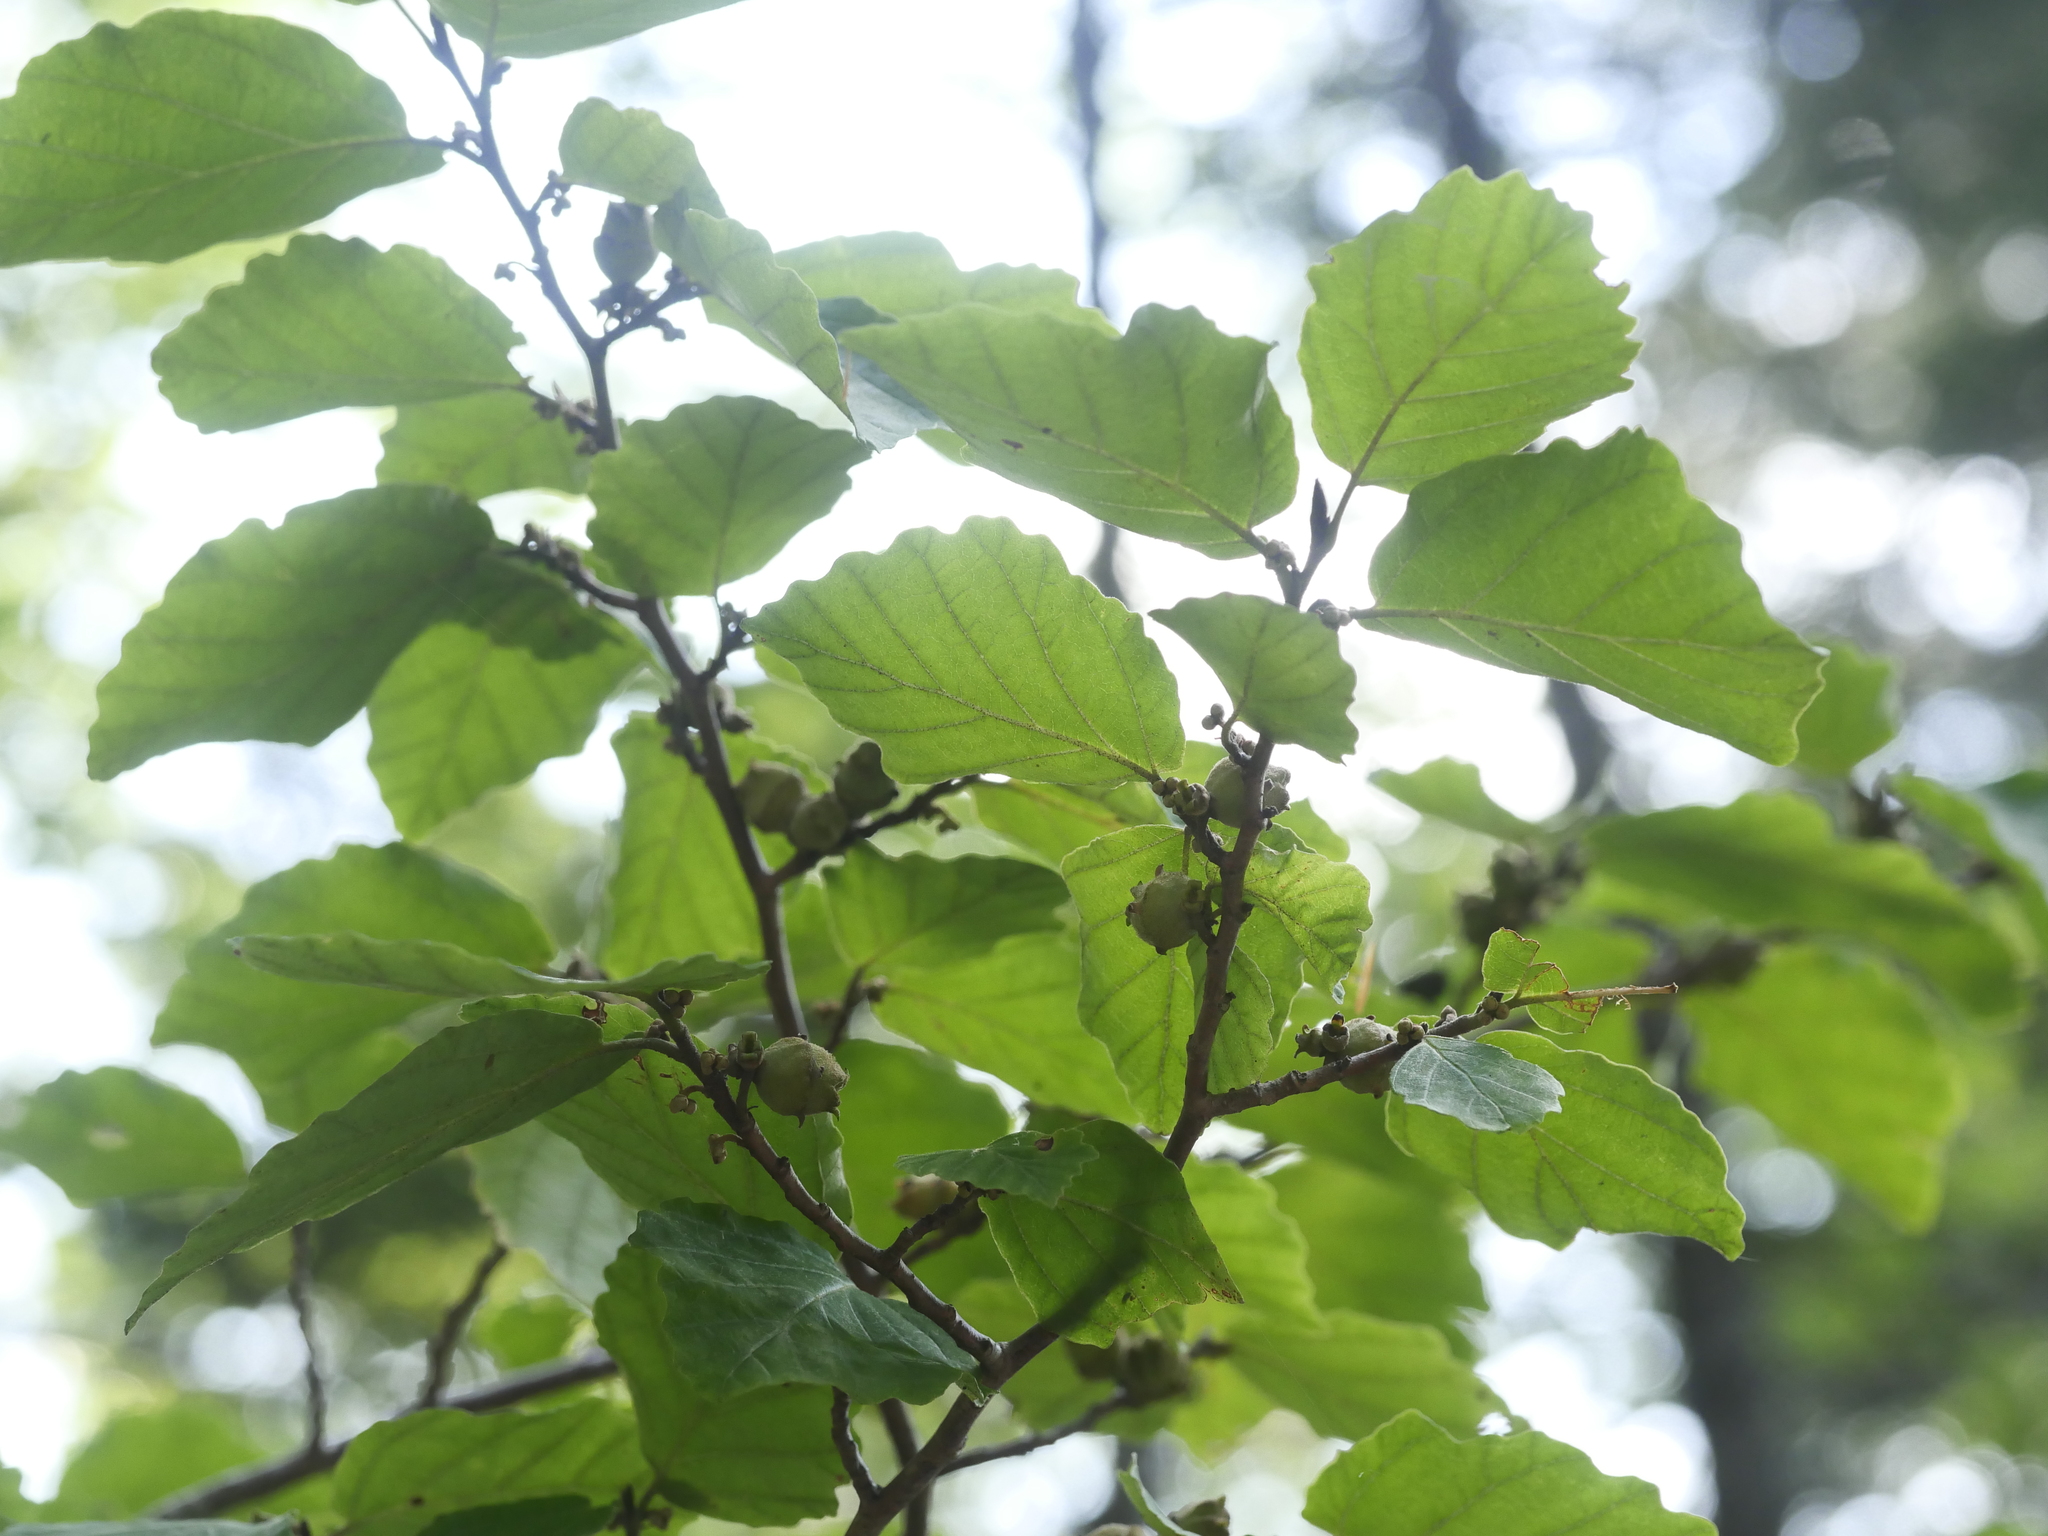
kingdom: Plantae
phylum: Tracheophyta
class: Magnoliopsida
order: Saxifragales
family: Hamamelidaceae
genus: Hamamelis
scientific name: Hamamelis virginiana
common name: Witch-hazel
